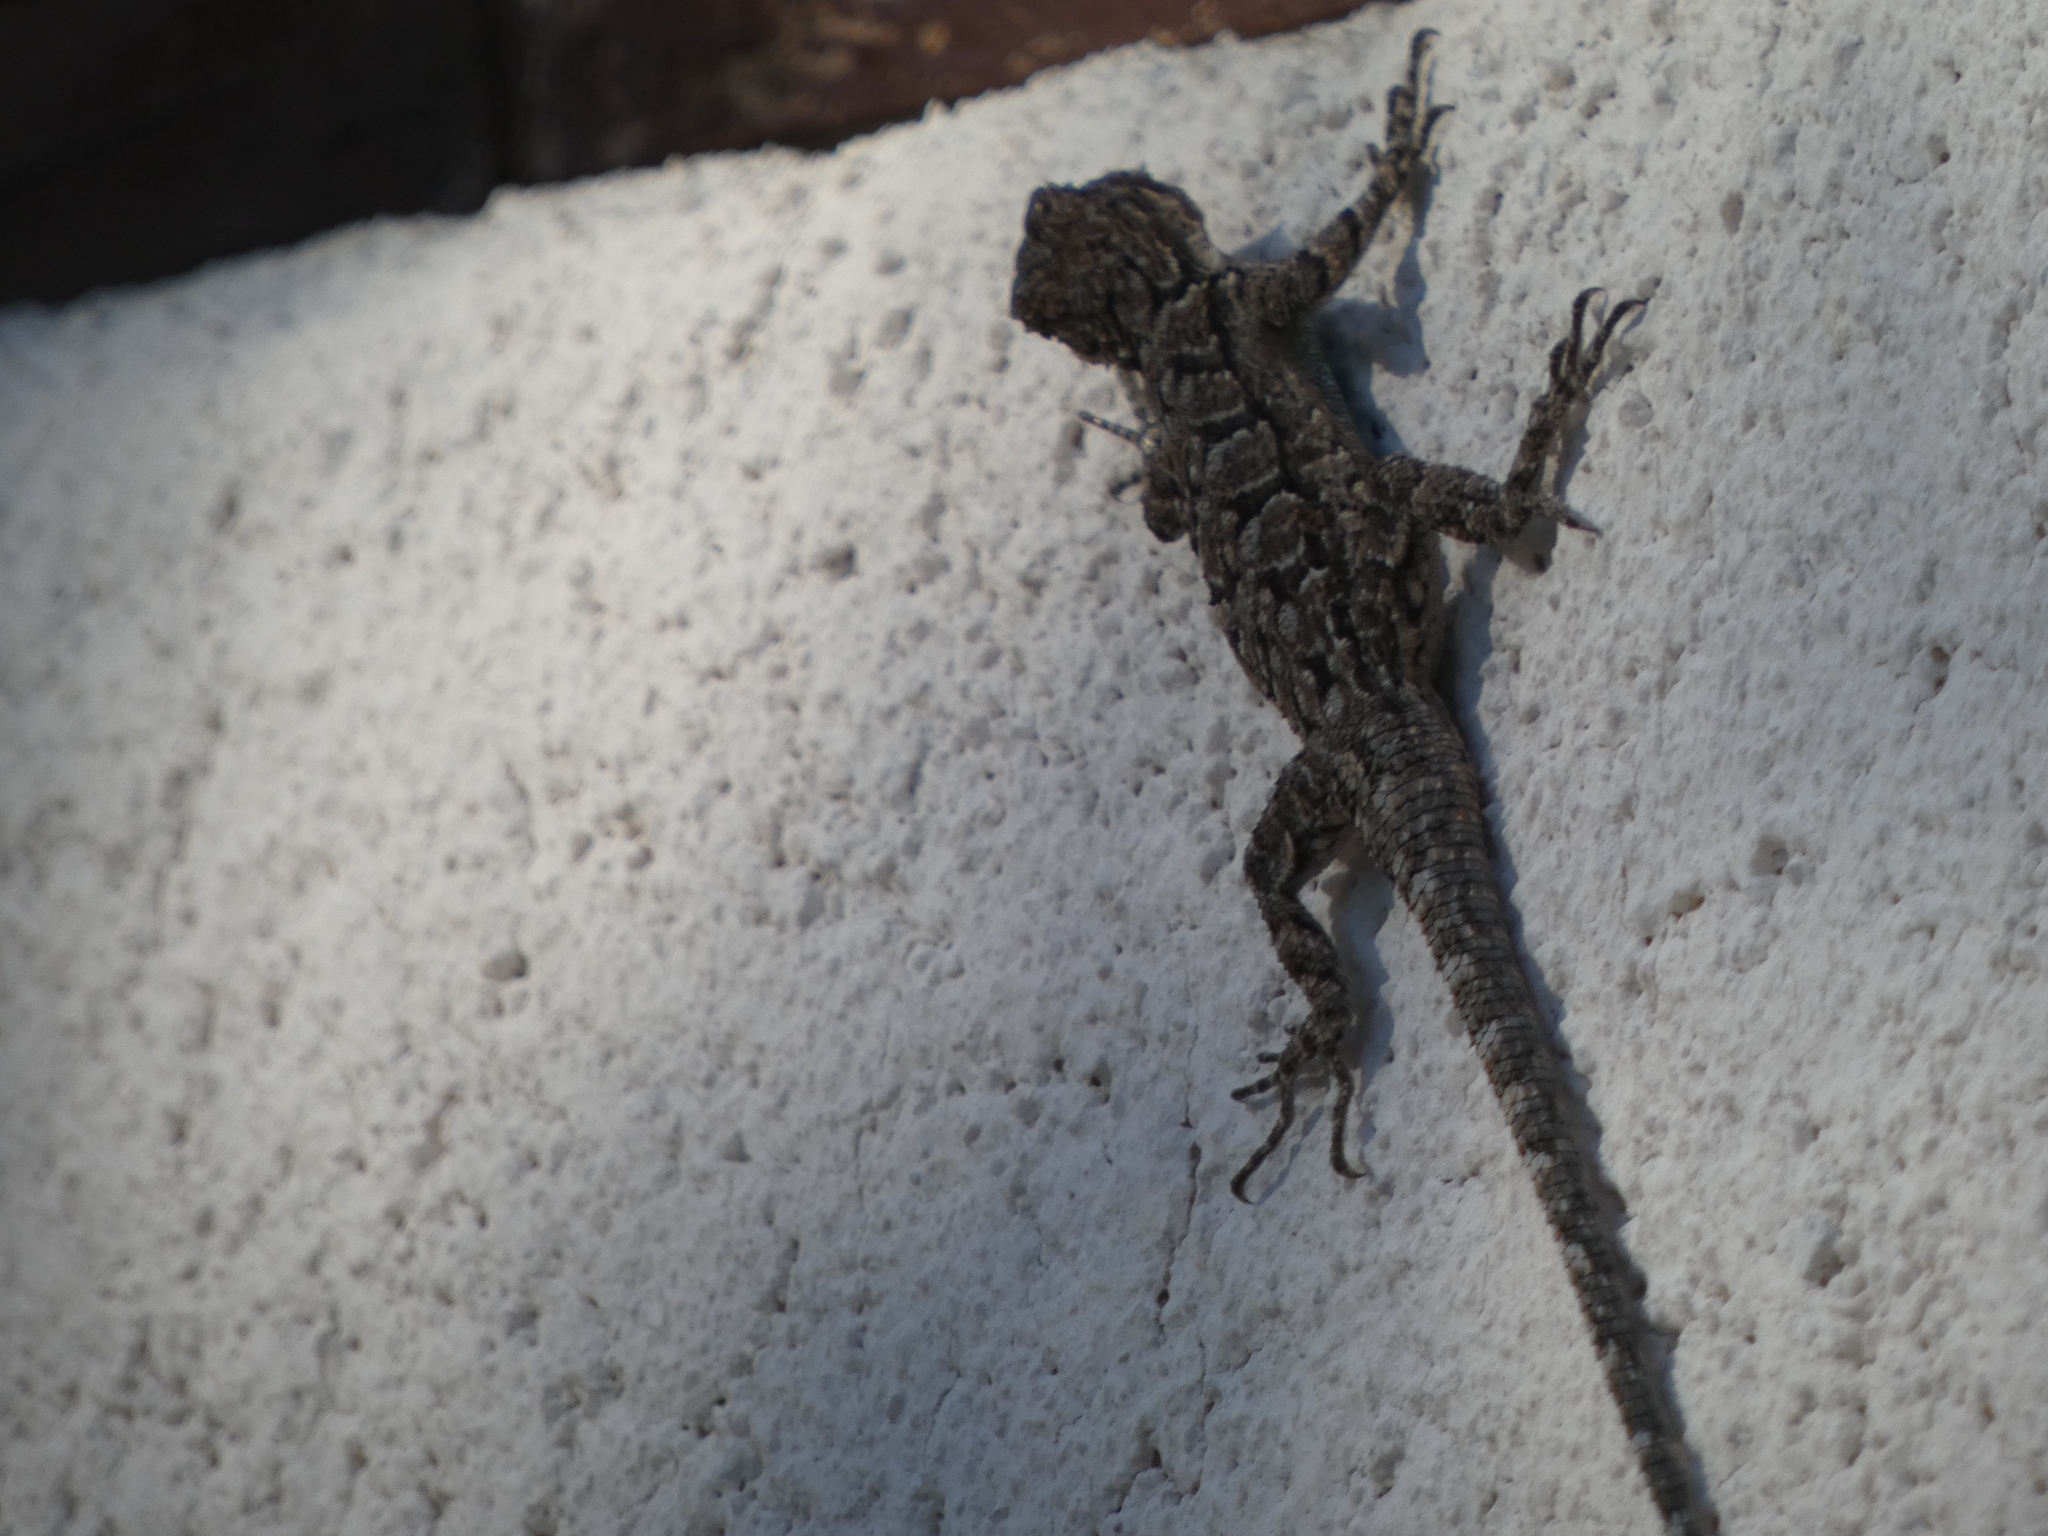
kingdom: Animalia
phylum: Chordata
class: Squamata
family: Phrynosomatidae
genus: Urosaurus
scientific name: Urosaurus ornatus
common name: Ornate tree lizard
